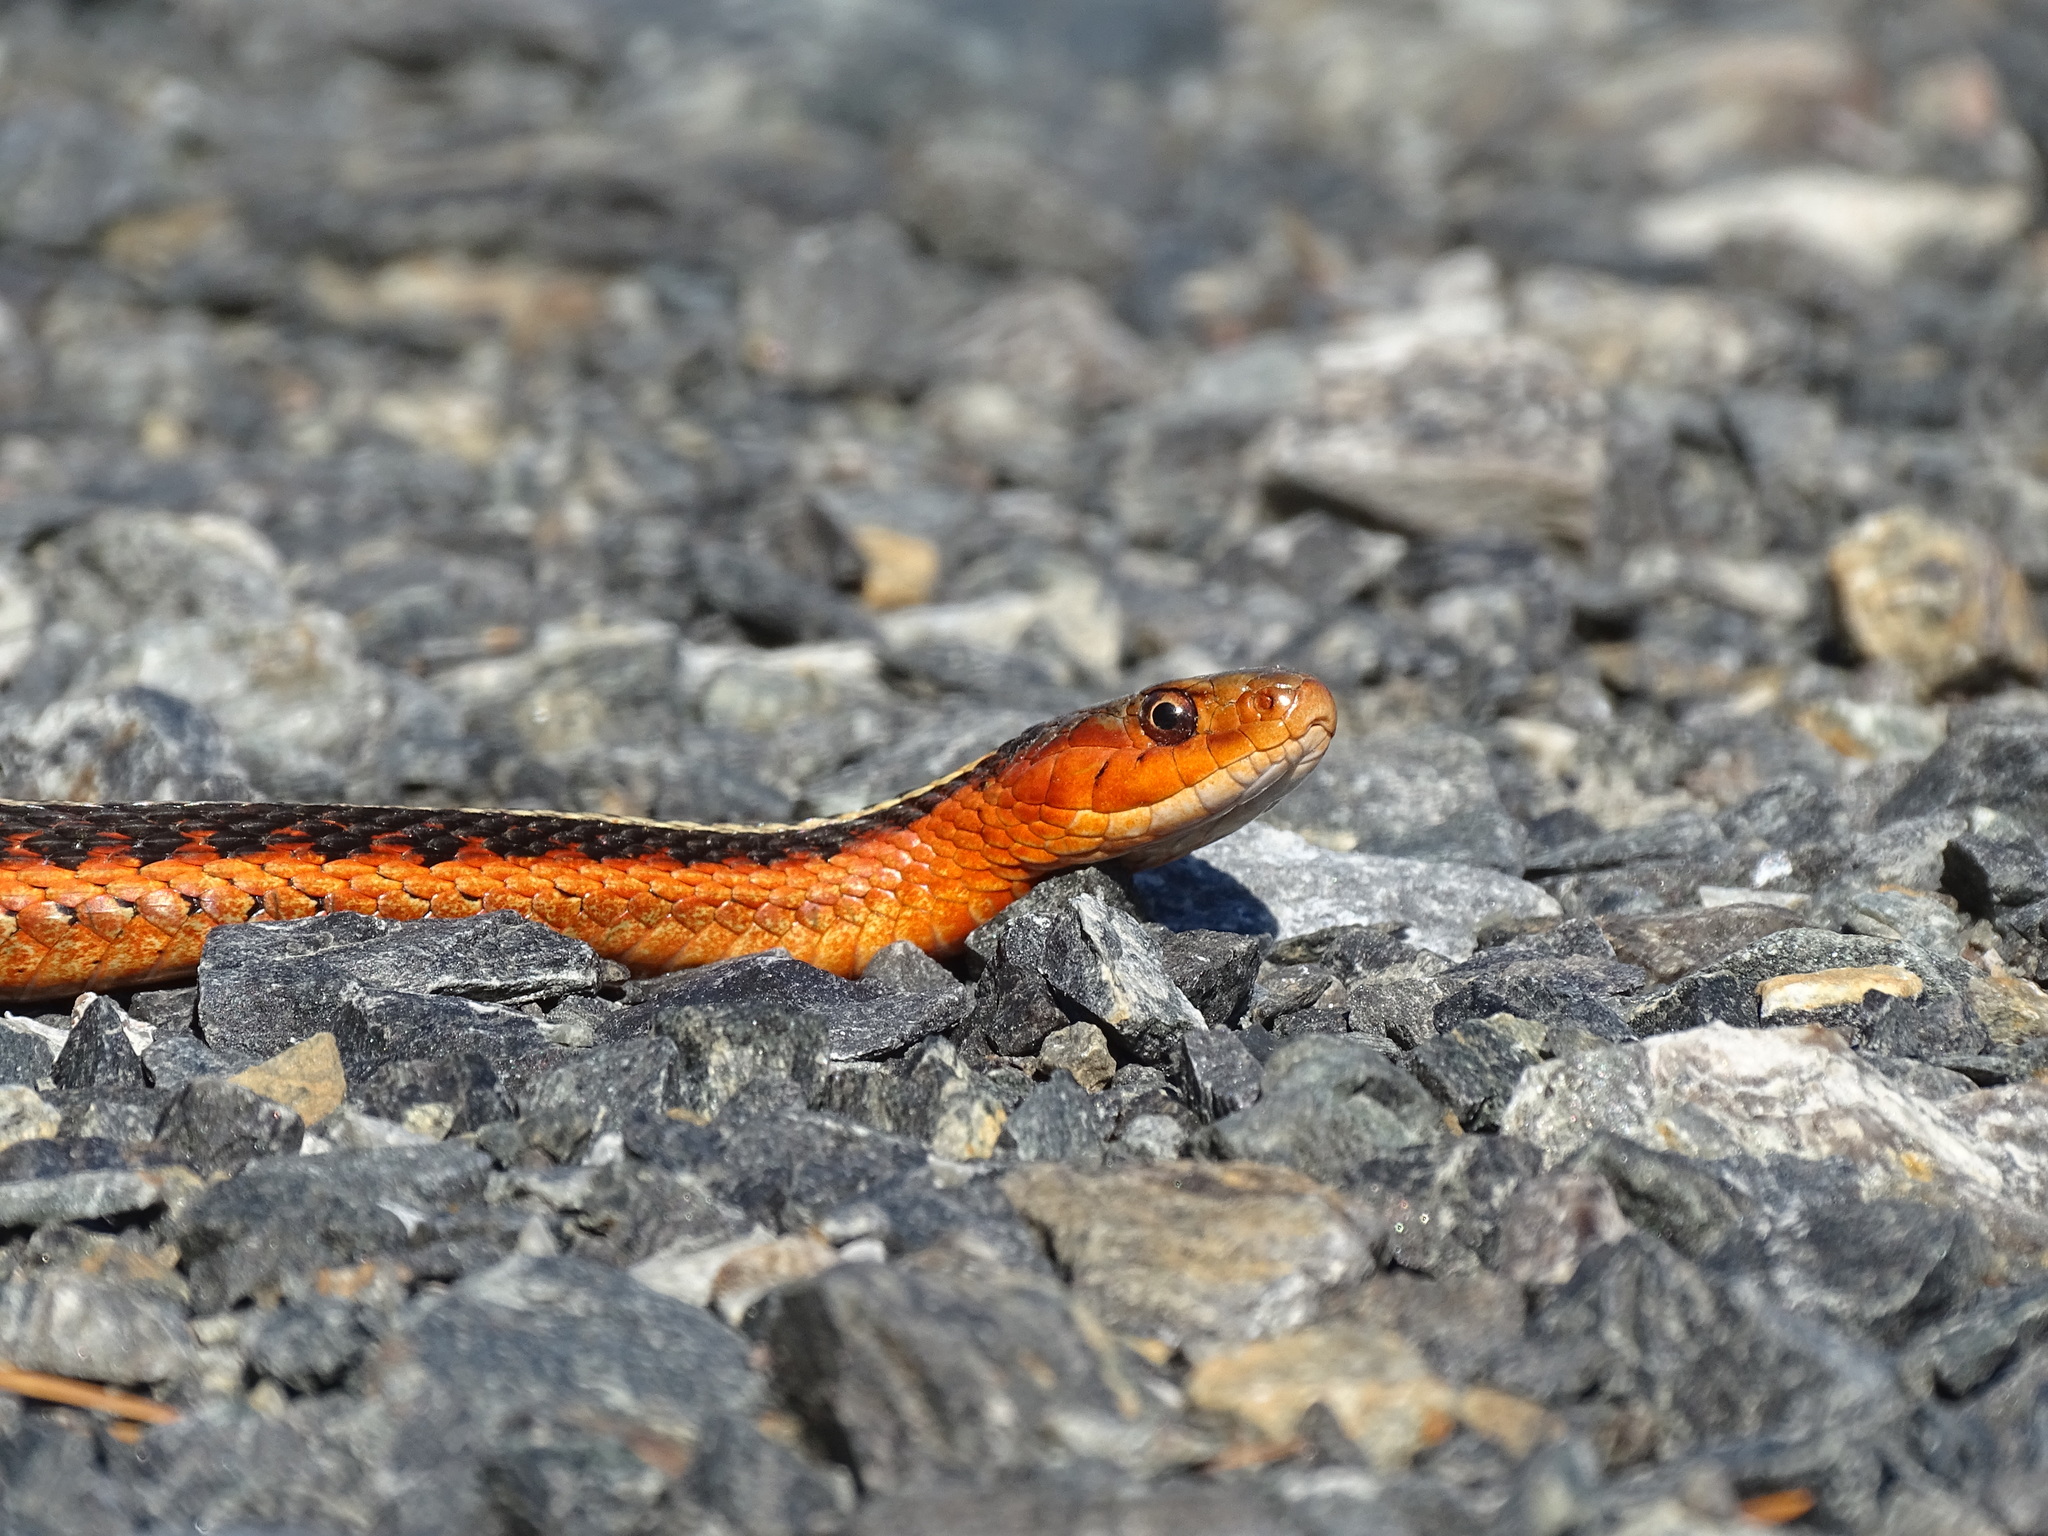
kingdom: Animalia
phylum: Chordata
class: Squamata
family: Colubridae
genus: Thamnophis
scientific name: Thamnophis sirtalis
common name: Common garter snake
